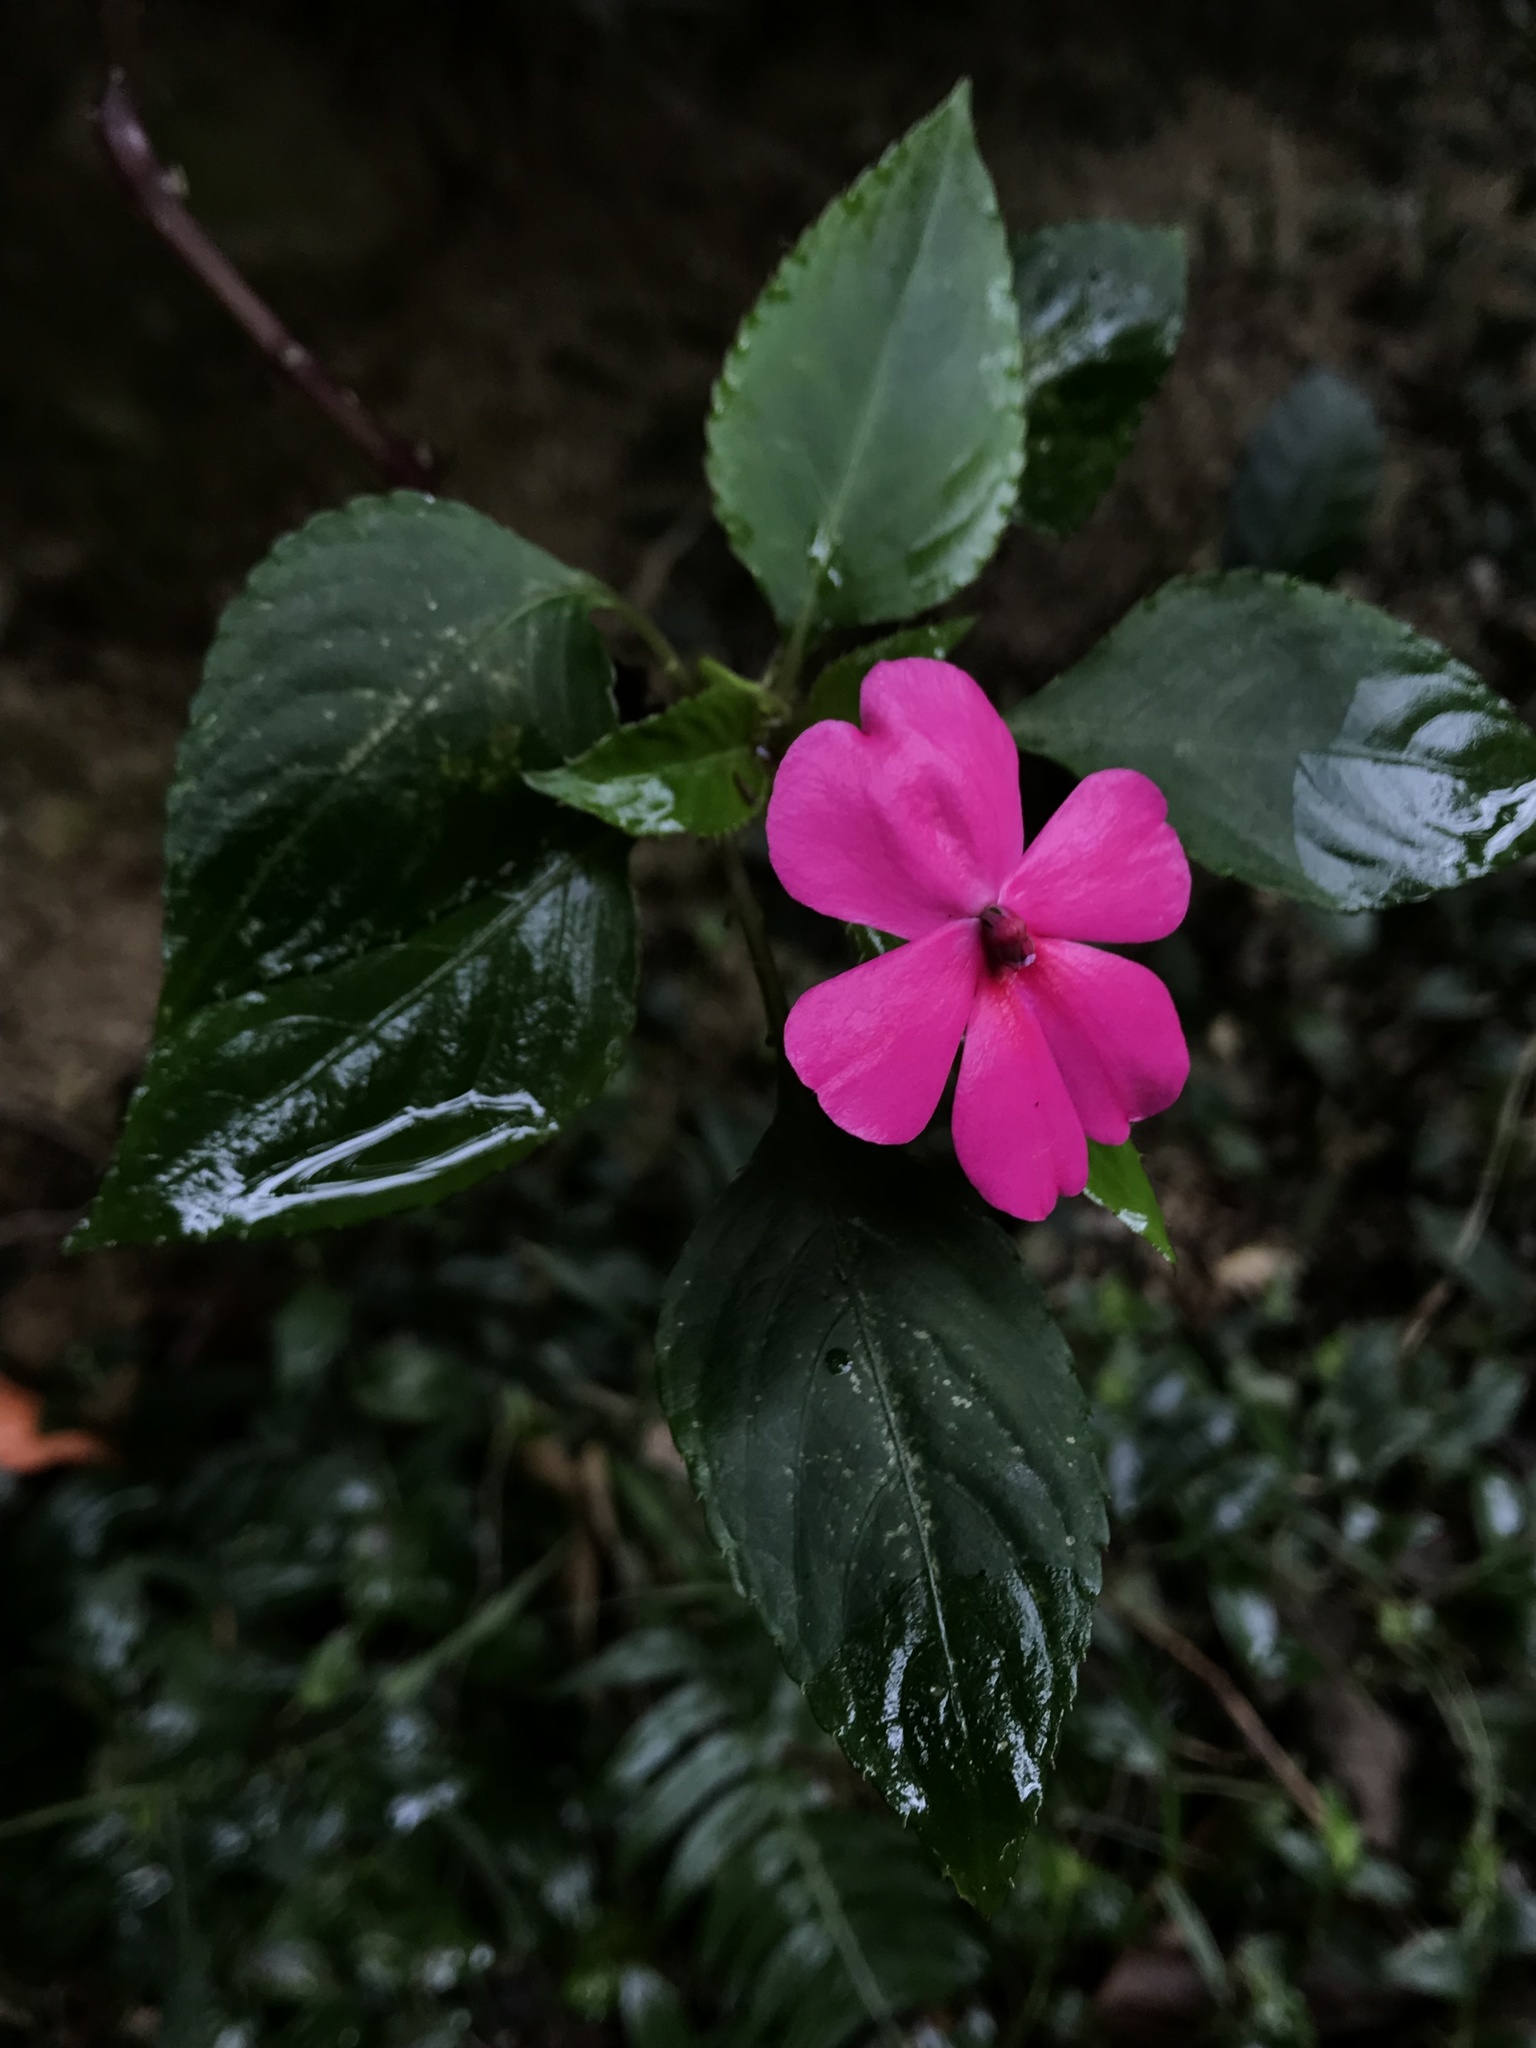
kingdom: Plantae
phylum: Tracheophyta
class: Magnoliopsida
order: Ericales
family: Balsaminaceae
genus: Impatiens
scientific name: Impatiens walleriana
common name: Buzzy lizzy
